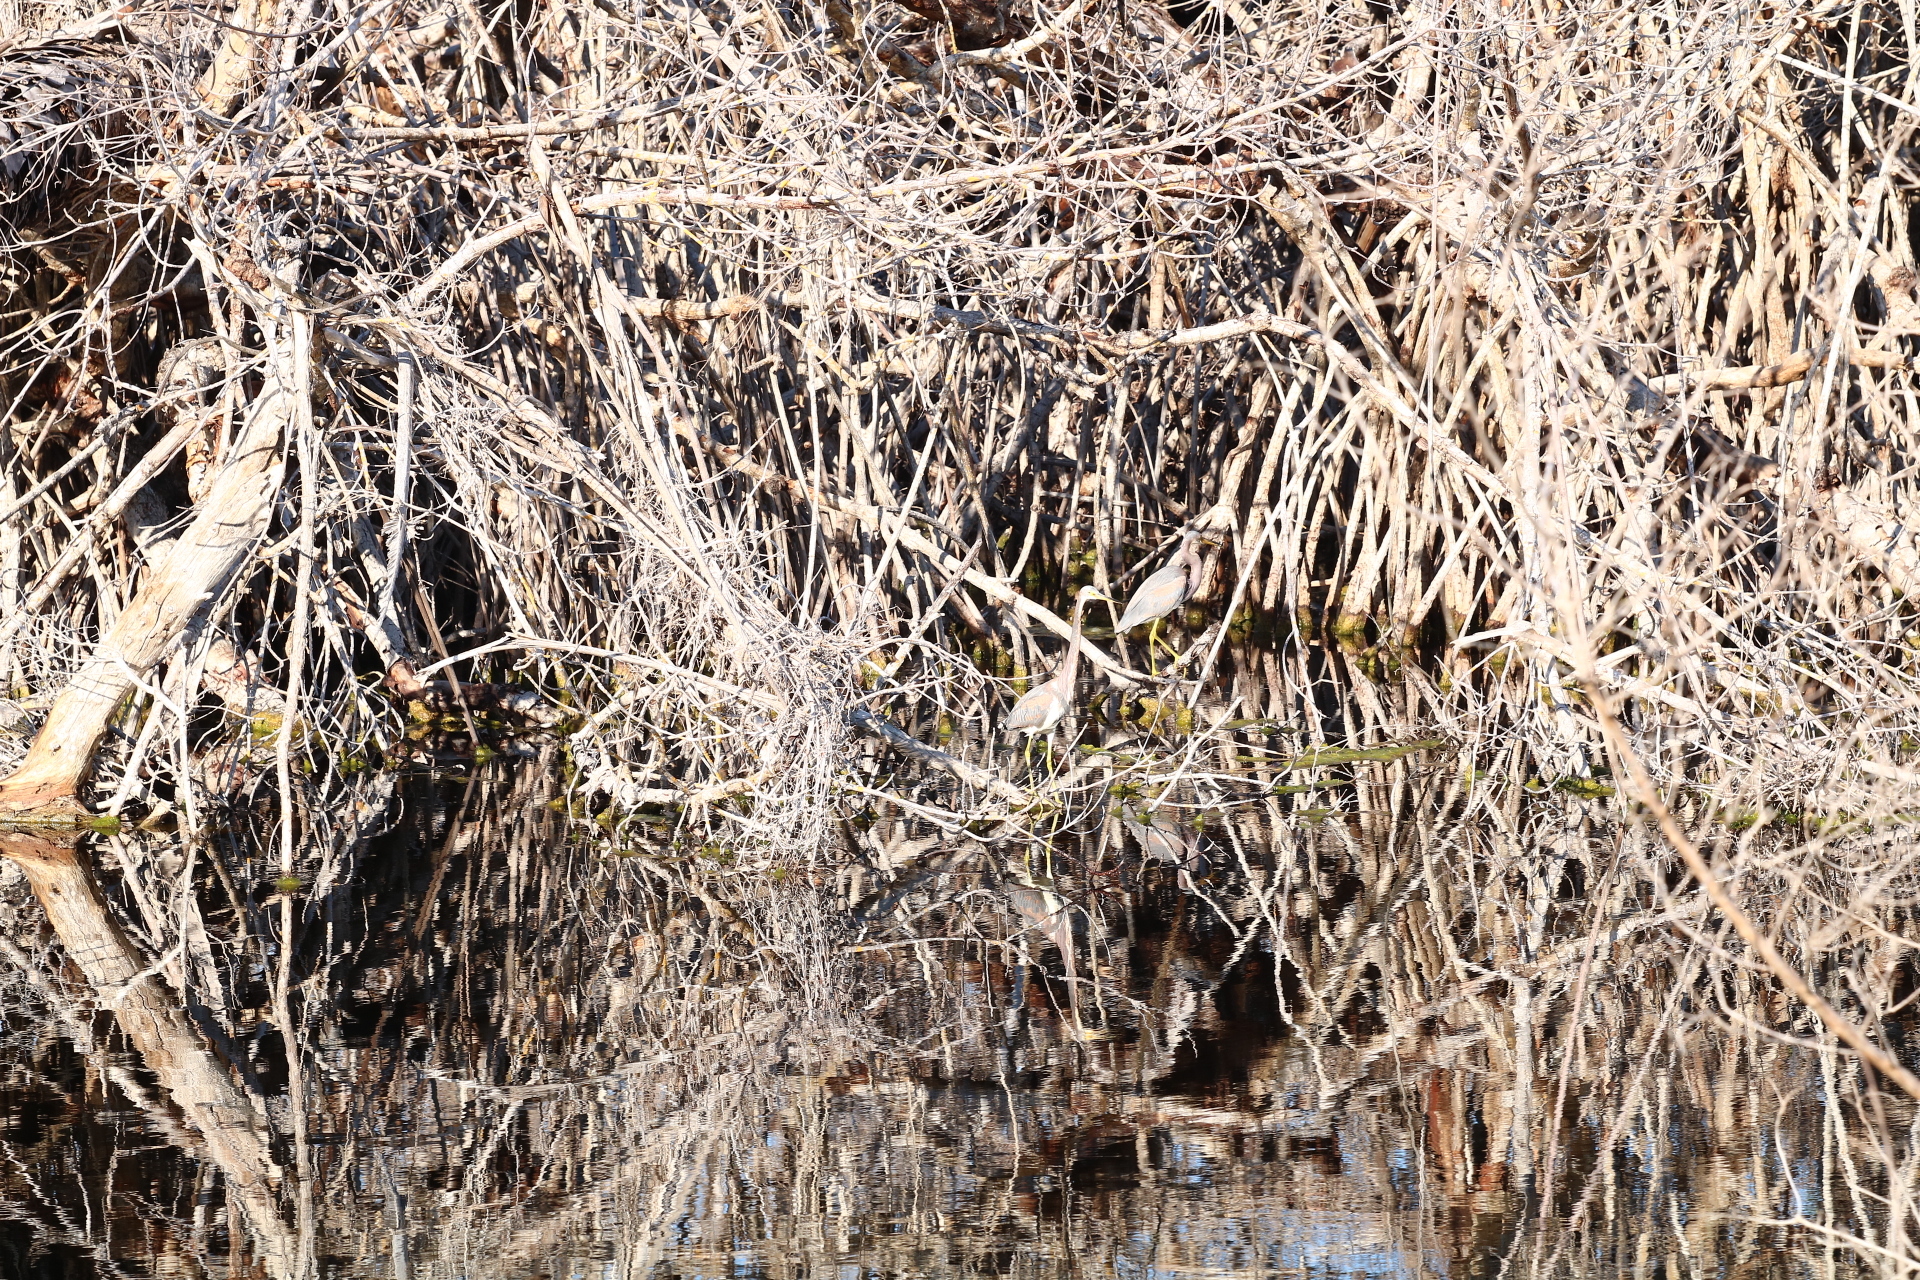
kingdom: Animalia
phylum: Chordata
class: Aves
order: Pelecaniformes
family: Ardeidae
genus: Egretta
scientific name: Egretta tricolor
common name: Tricolored heron
